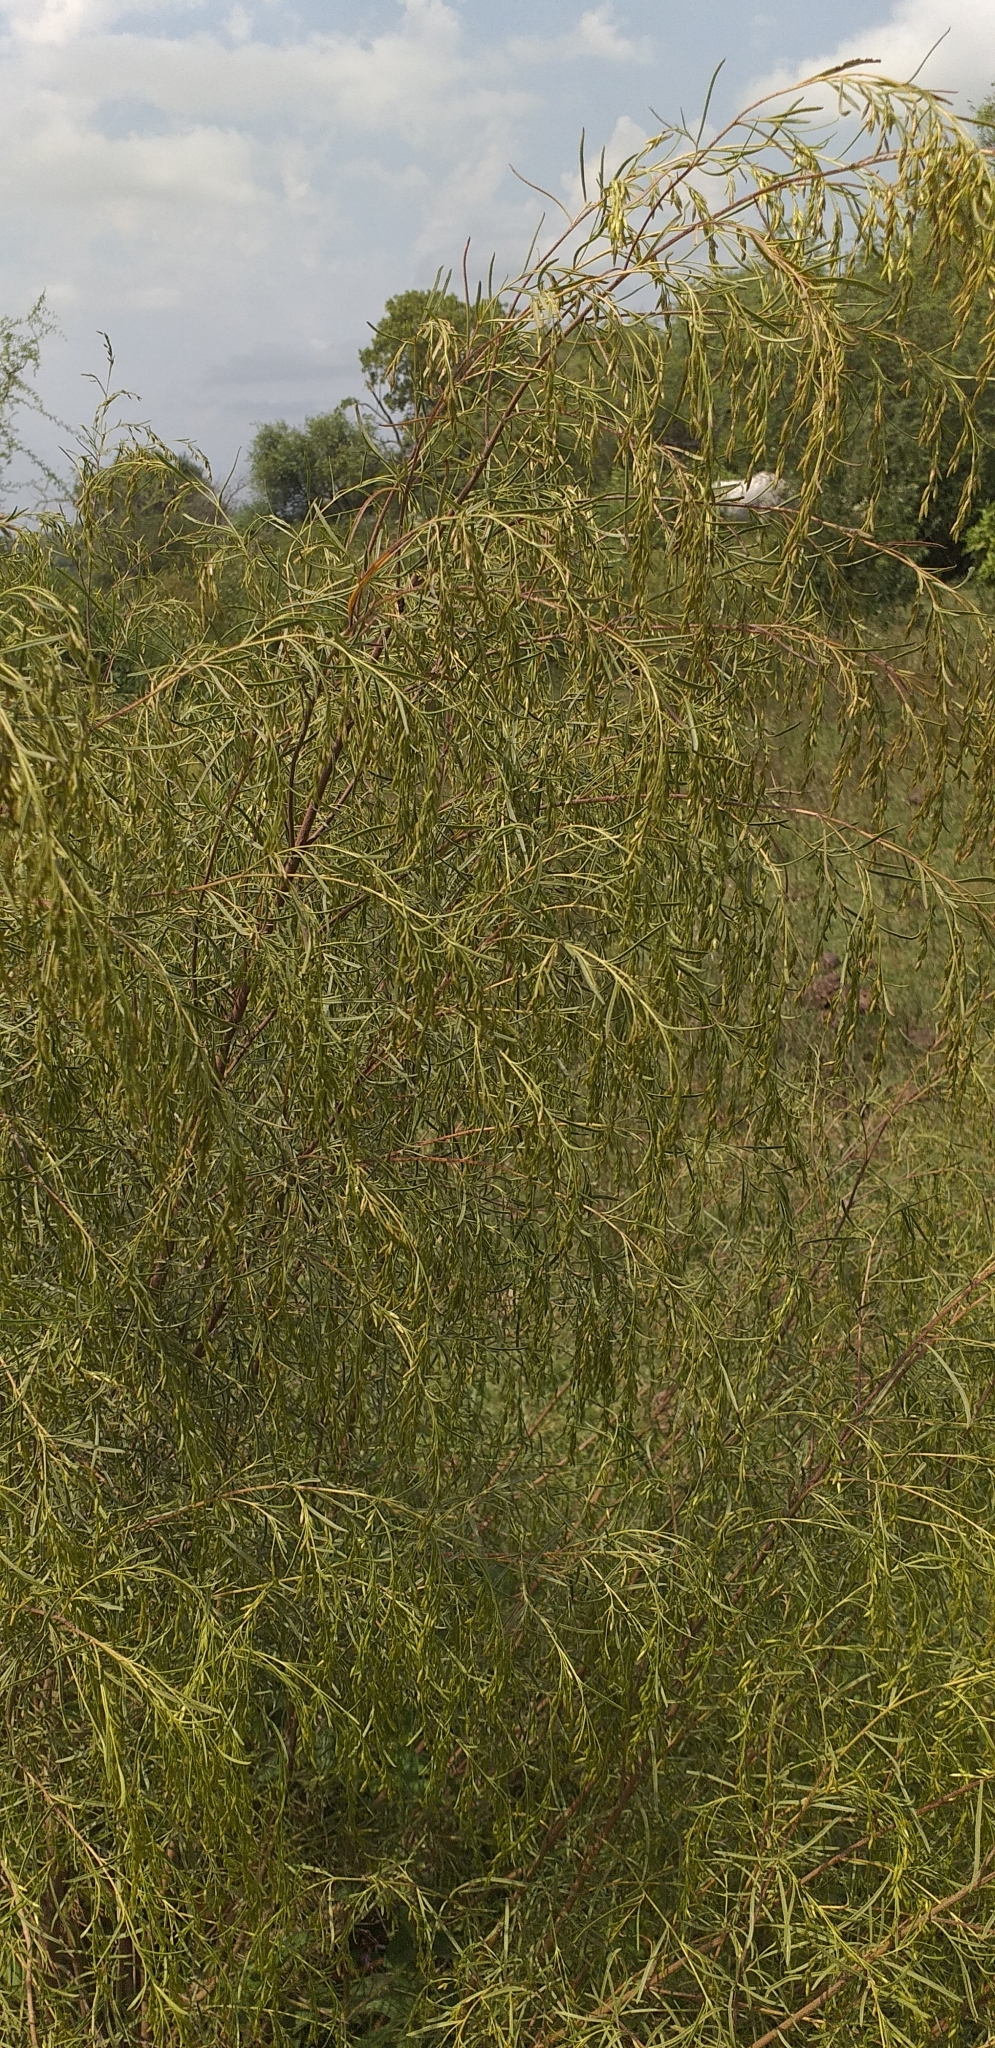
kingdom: Plantae
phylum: Tracheophyta
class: Magnoliopsida
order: Asterales
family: Asteraceae
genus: Acanthostyles
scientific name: Acanthostyles buniifolius
